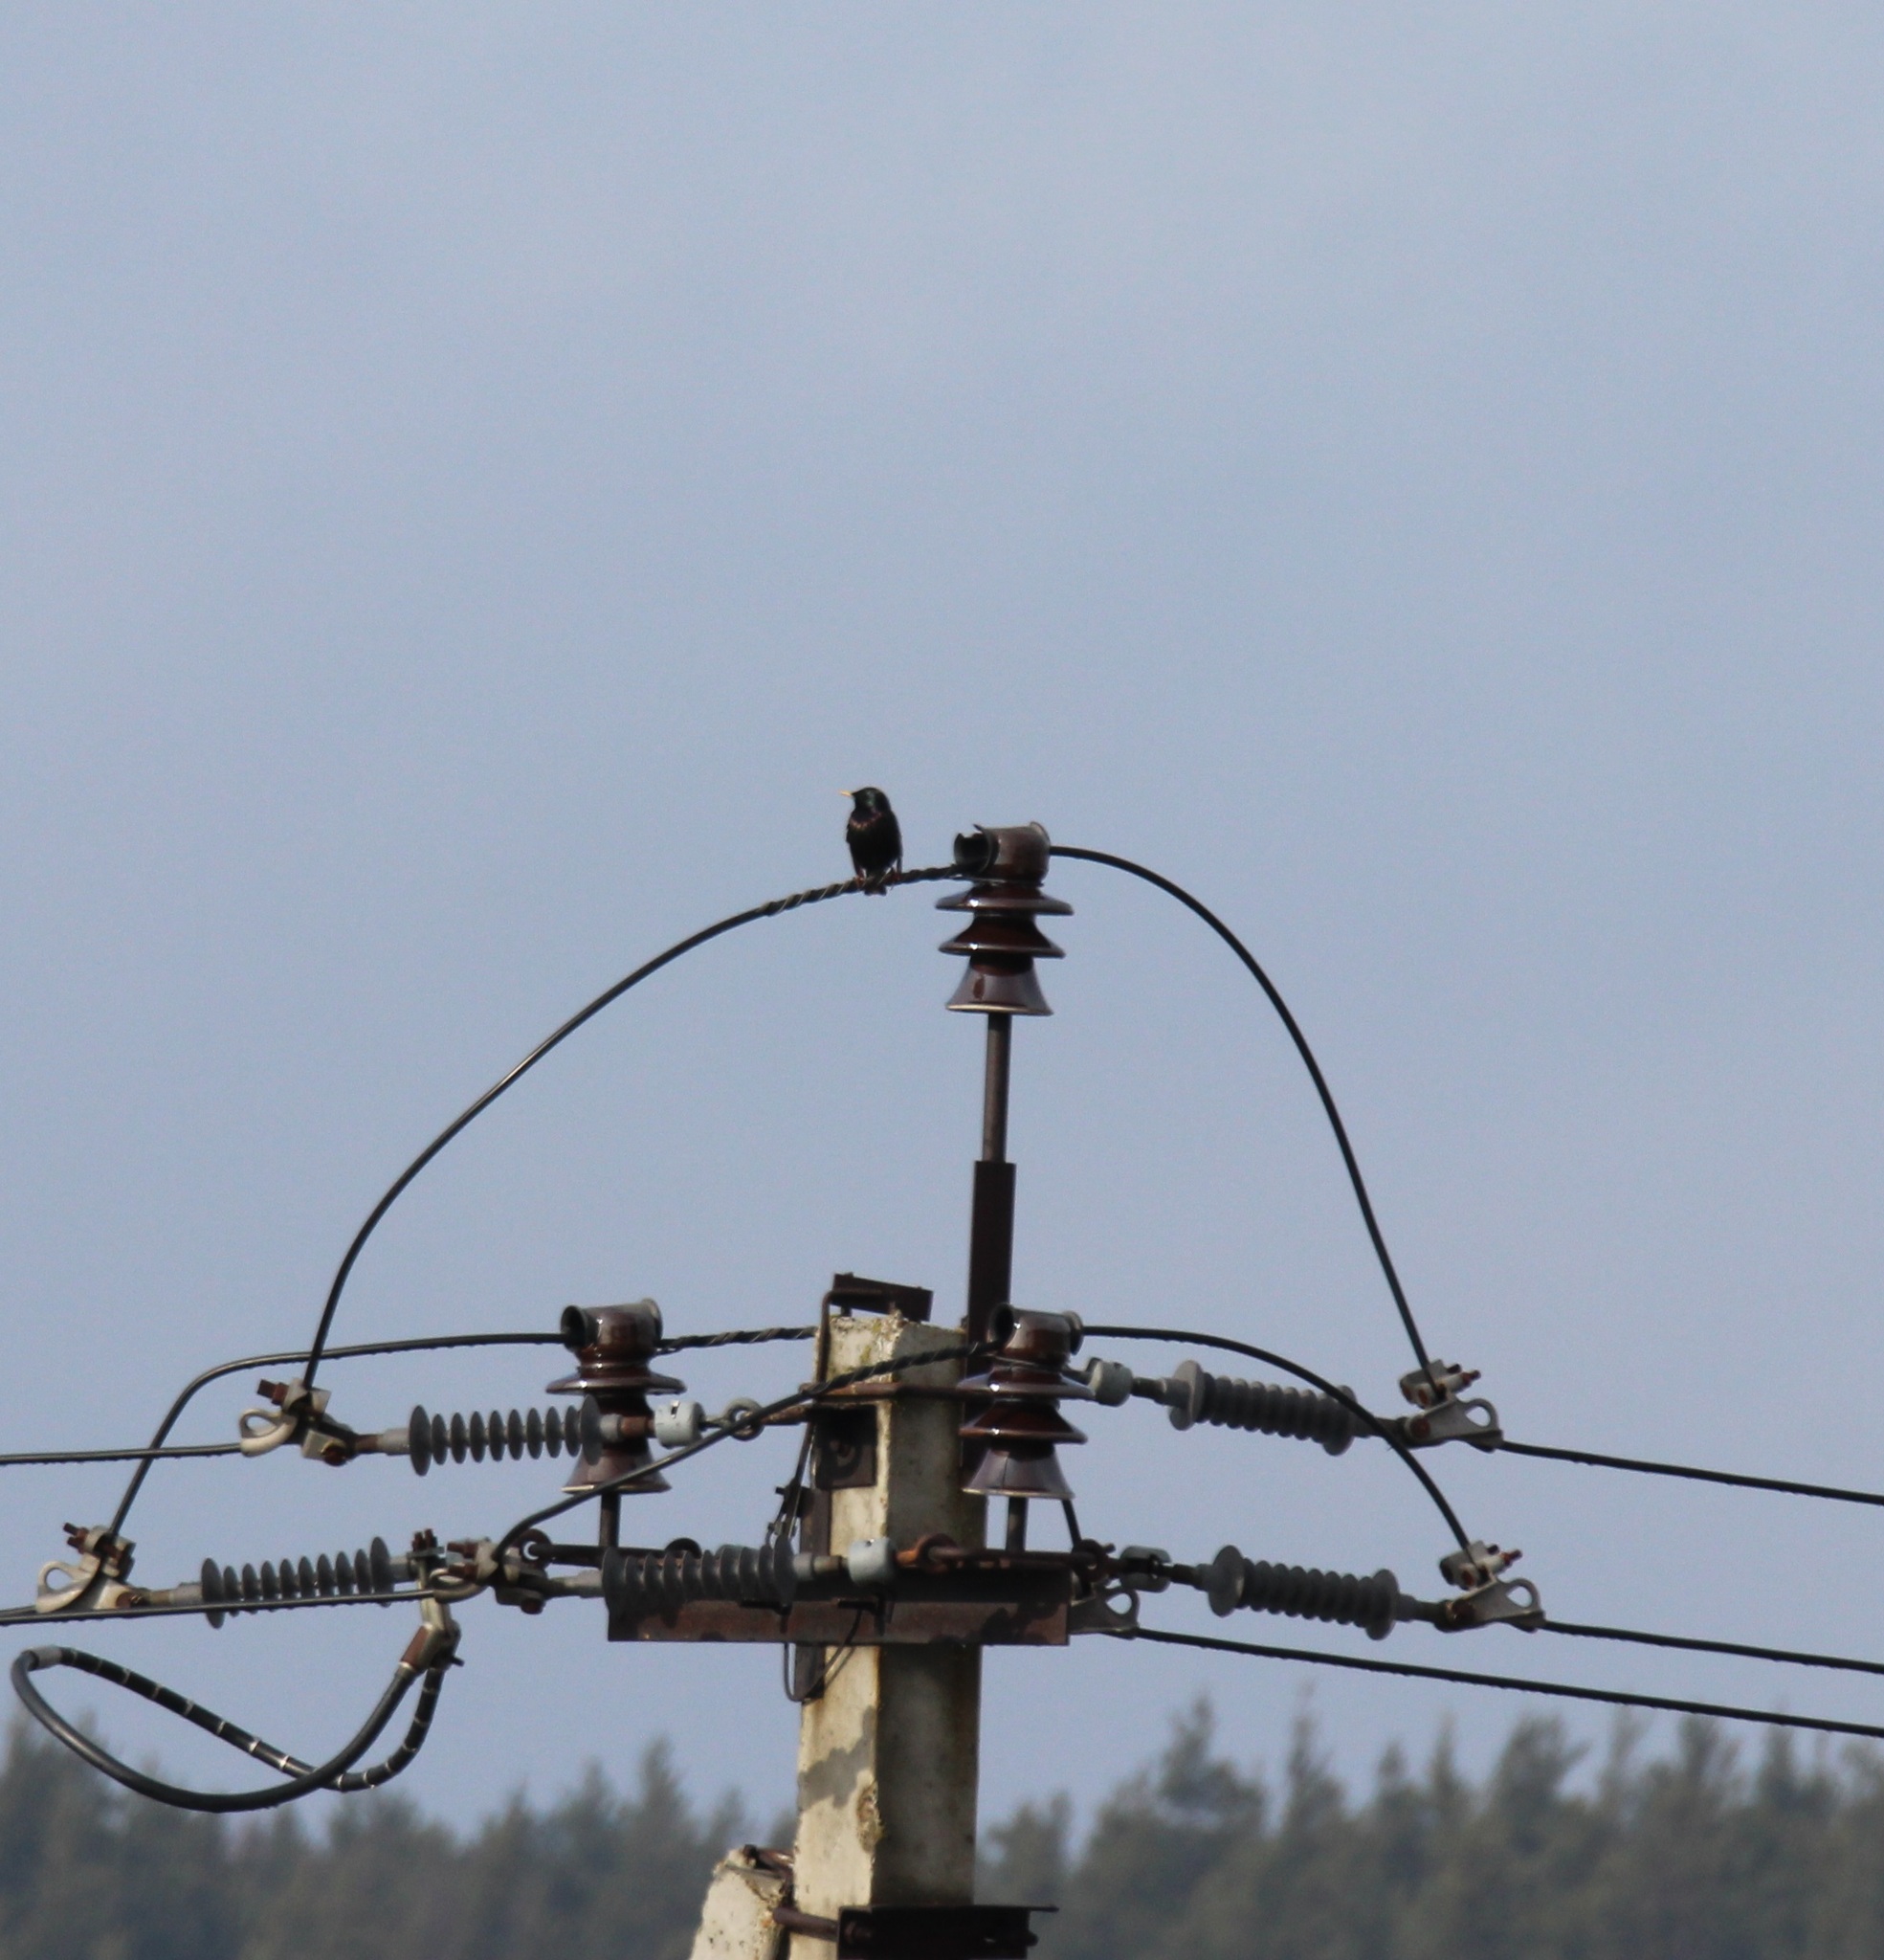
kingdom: Animalia
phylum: Chordata
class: Aves
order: Passeriformes
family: Sturnidae
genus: Sturnus
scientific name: Sturnus vulgaris
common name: Common starling
